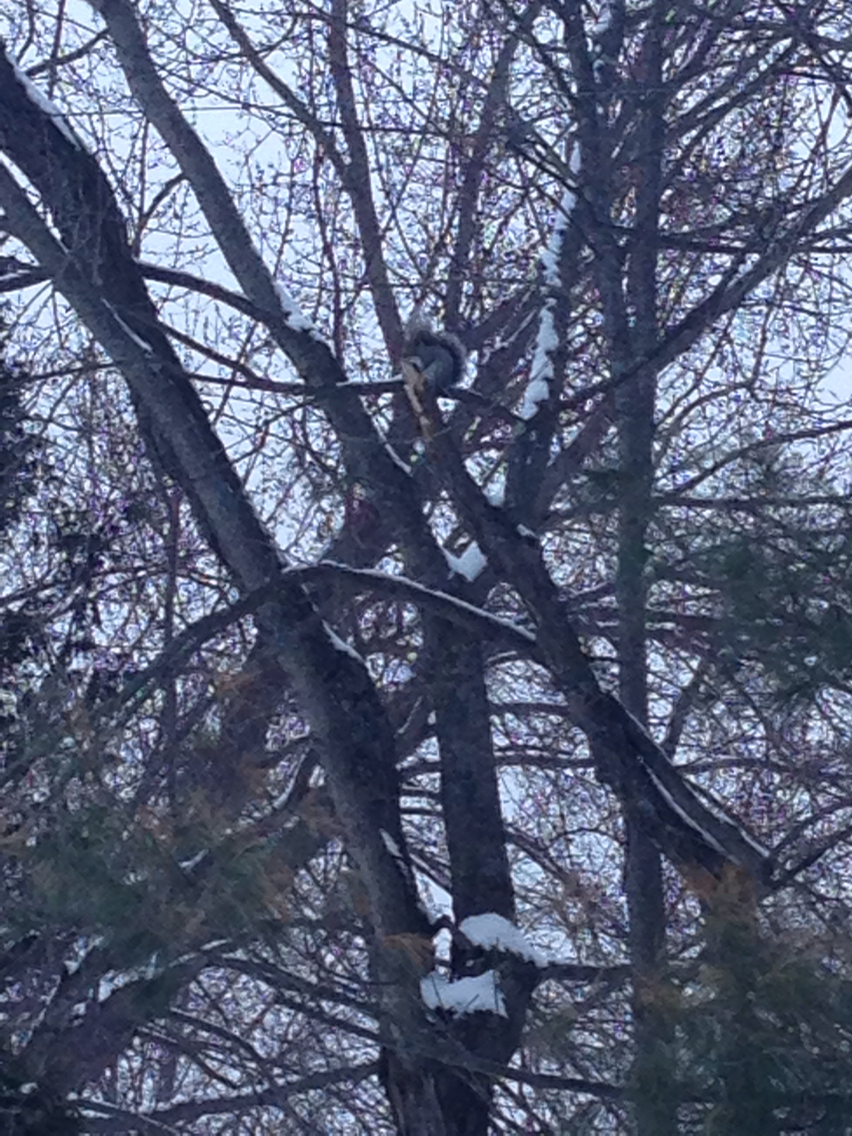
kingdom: Animalia
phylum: Chordata
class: Mammalia
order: Rodentia
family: Sciuridae
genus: Sciurus
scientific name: Sciurus carolinensis
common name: Eastern gray squirrel
